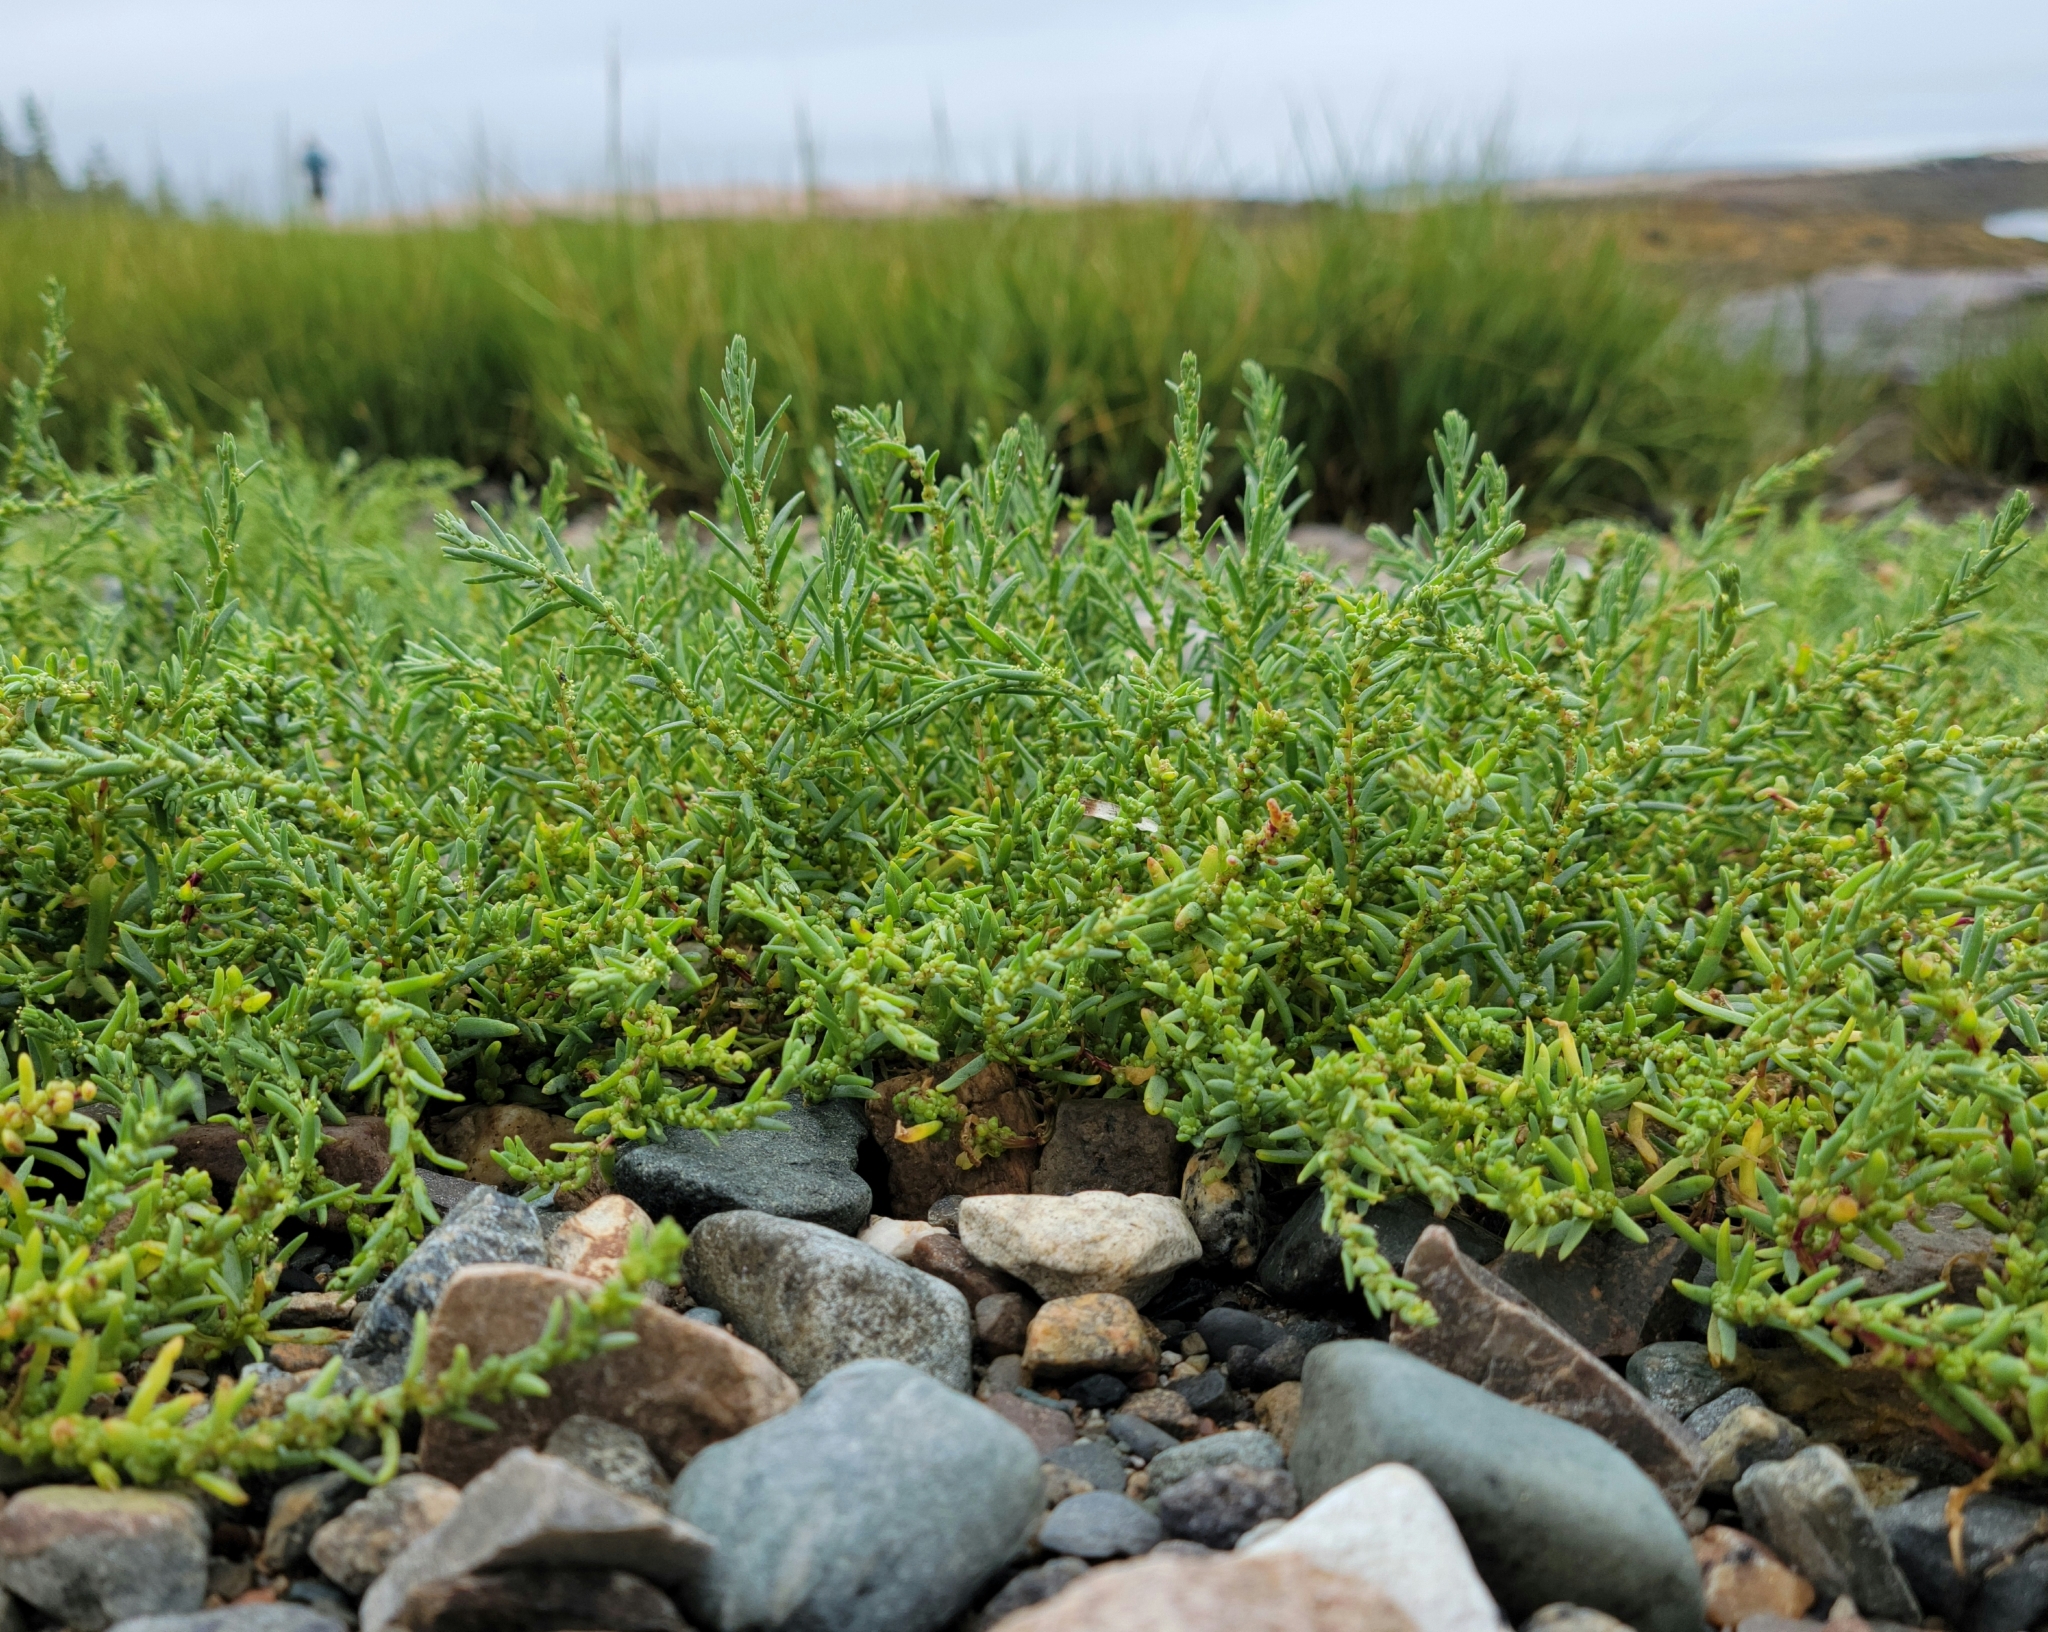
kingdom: Plantae
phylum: Tracheophyta
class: Magnoliopsida
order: Caryophyllales
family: Amaranthaceae
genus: Suaeda
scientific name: Suaeda maritima
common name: Annual sea-blite
